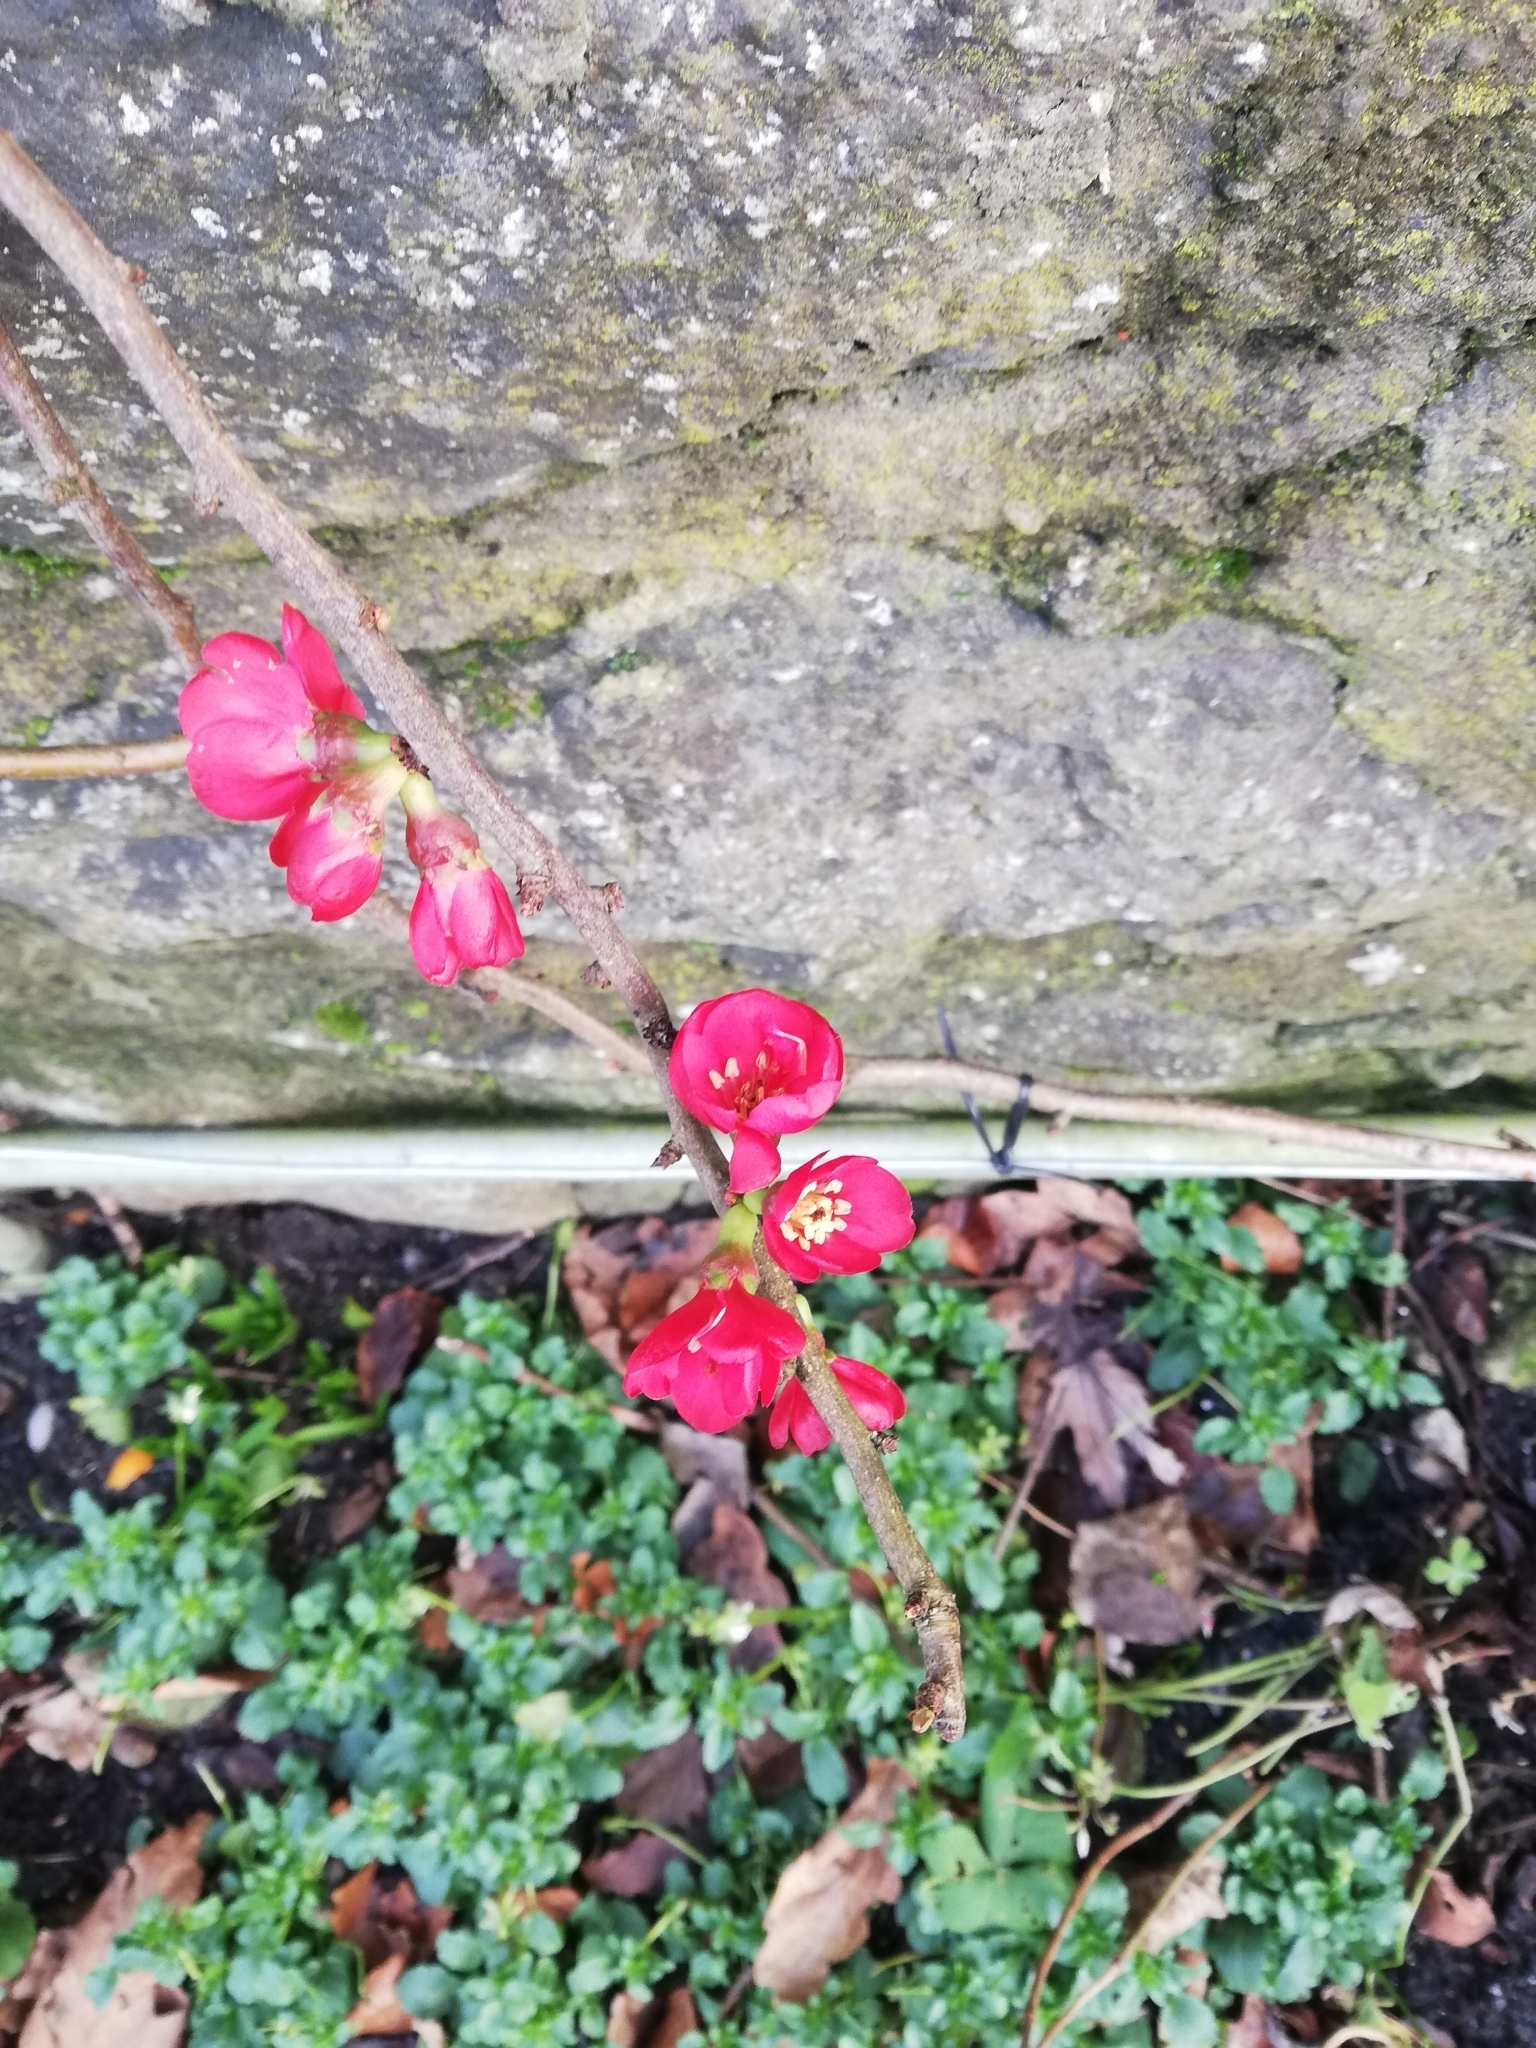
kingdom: Plantae
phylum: Tracheophyta
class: Magnoliopsida
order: Rosales
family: Rosaceae
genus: Chaenomeles
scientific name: Chaenomeles speciosa
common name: Japanese quince
